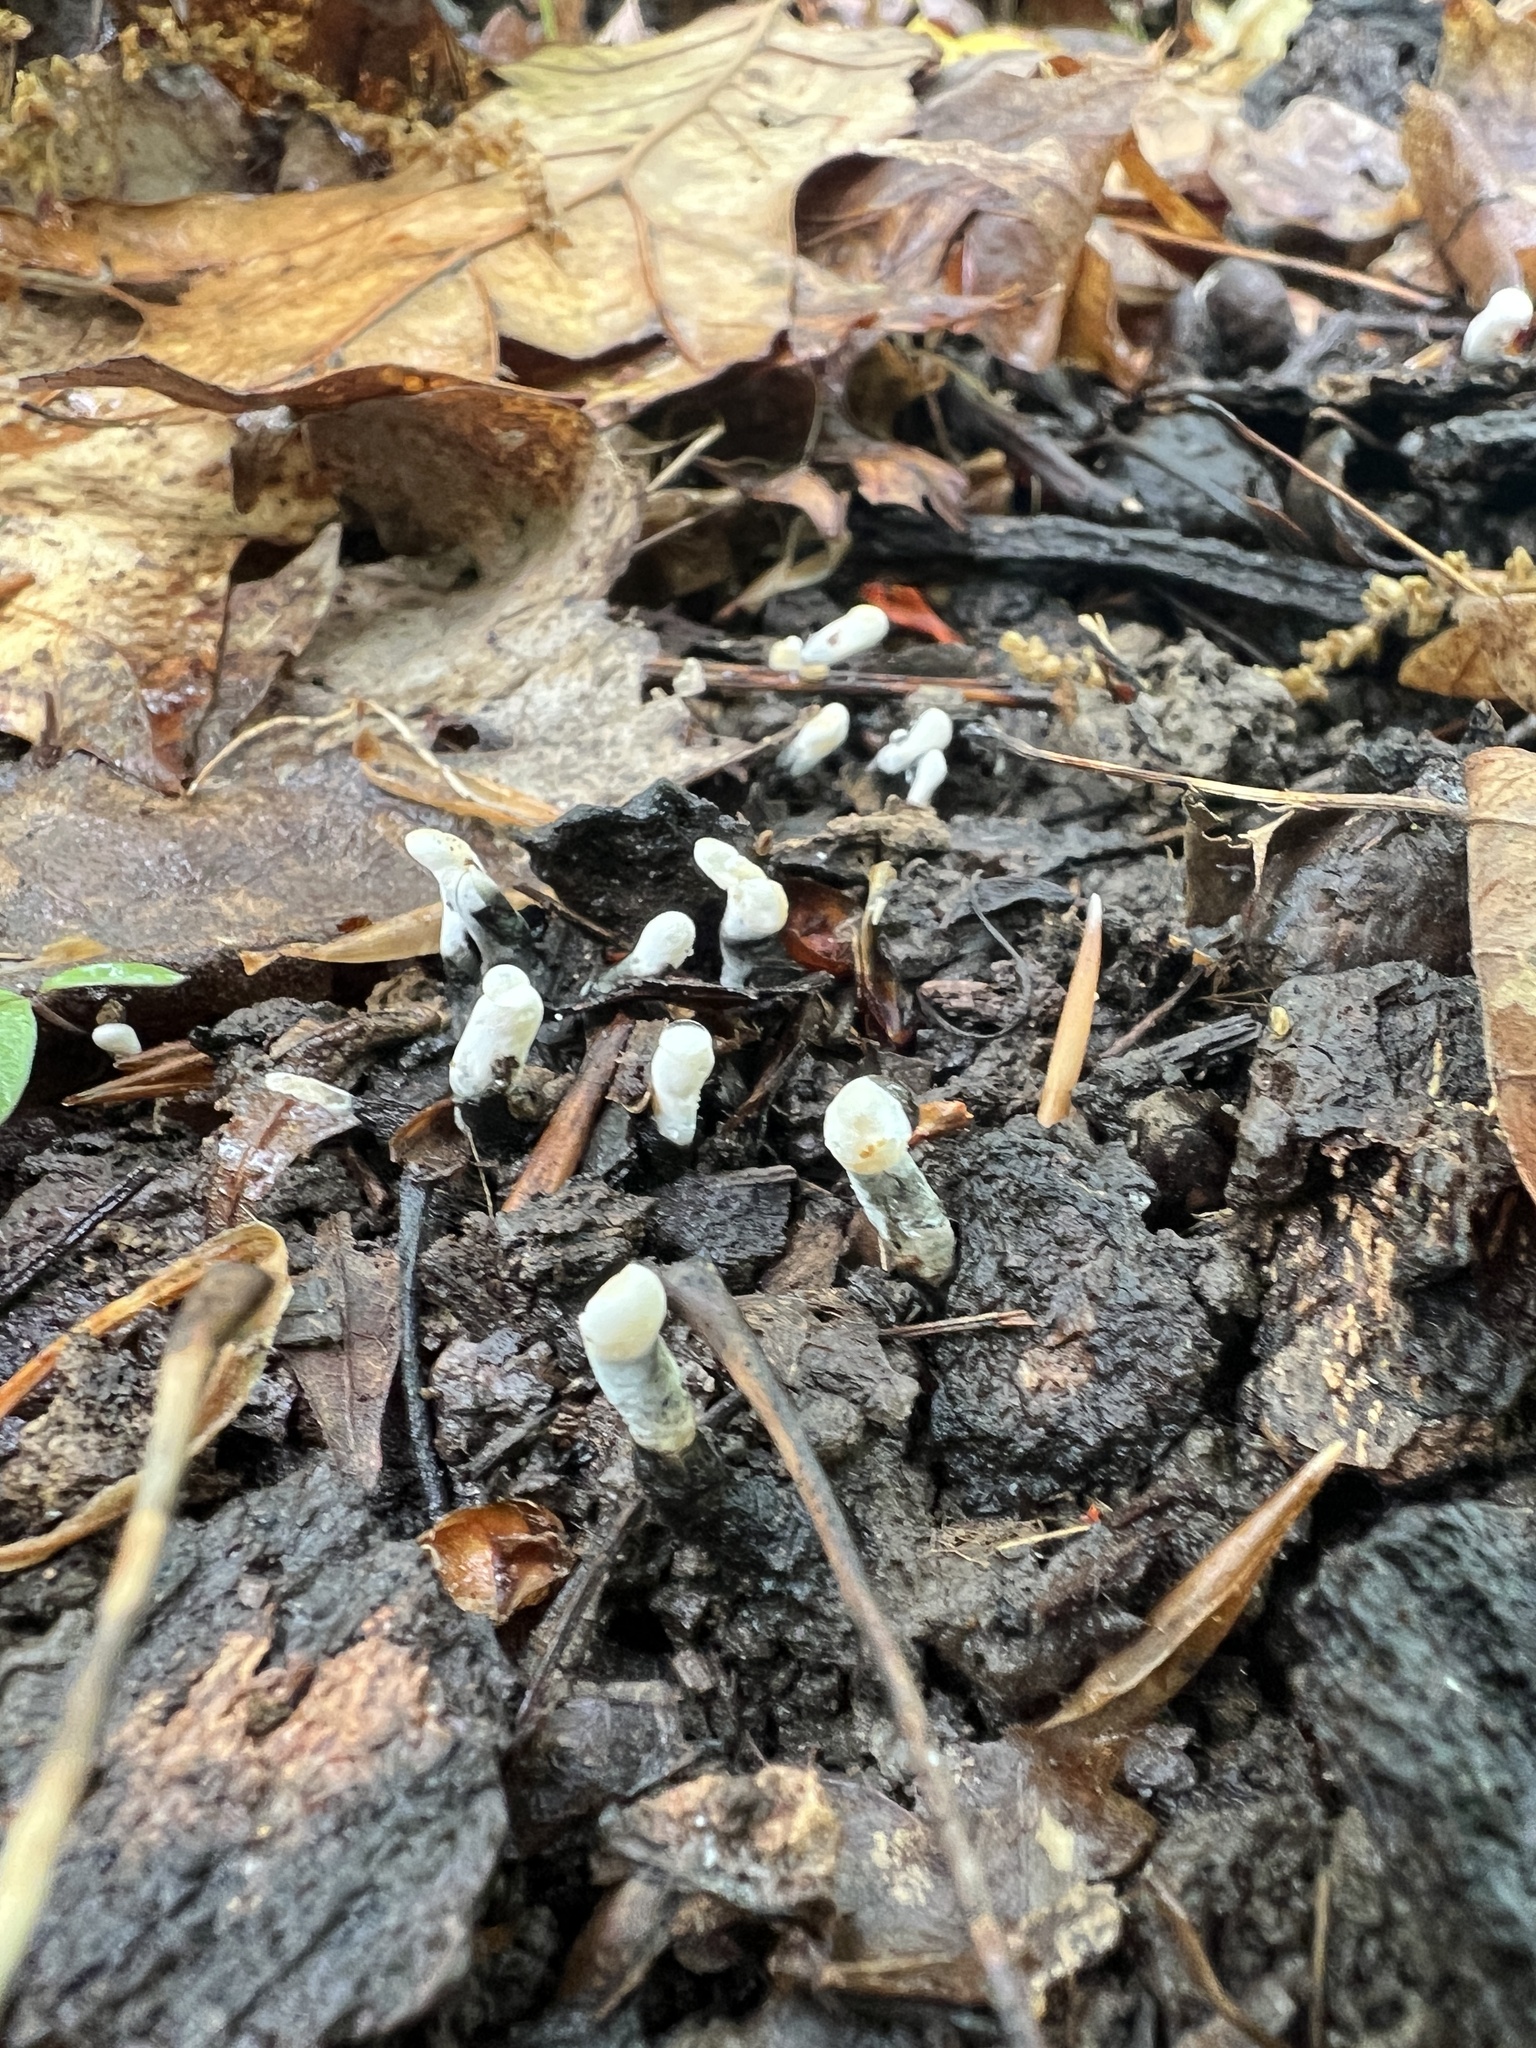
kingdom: Fungi
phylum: Ascomycota
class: Sordariomycetes
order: Xylariales
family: Xylariaceae
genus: Xylaria
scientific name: Xylaria cornu-damae
